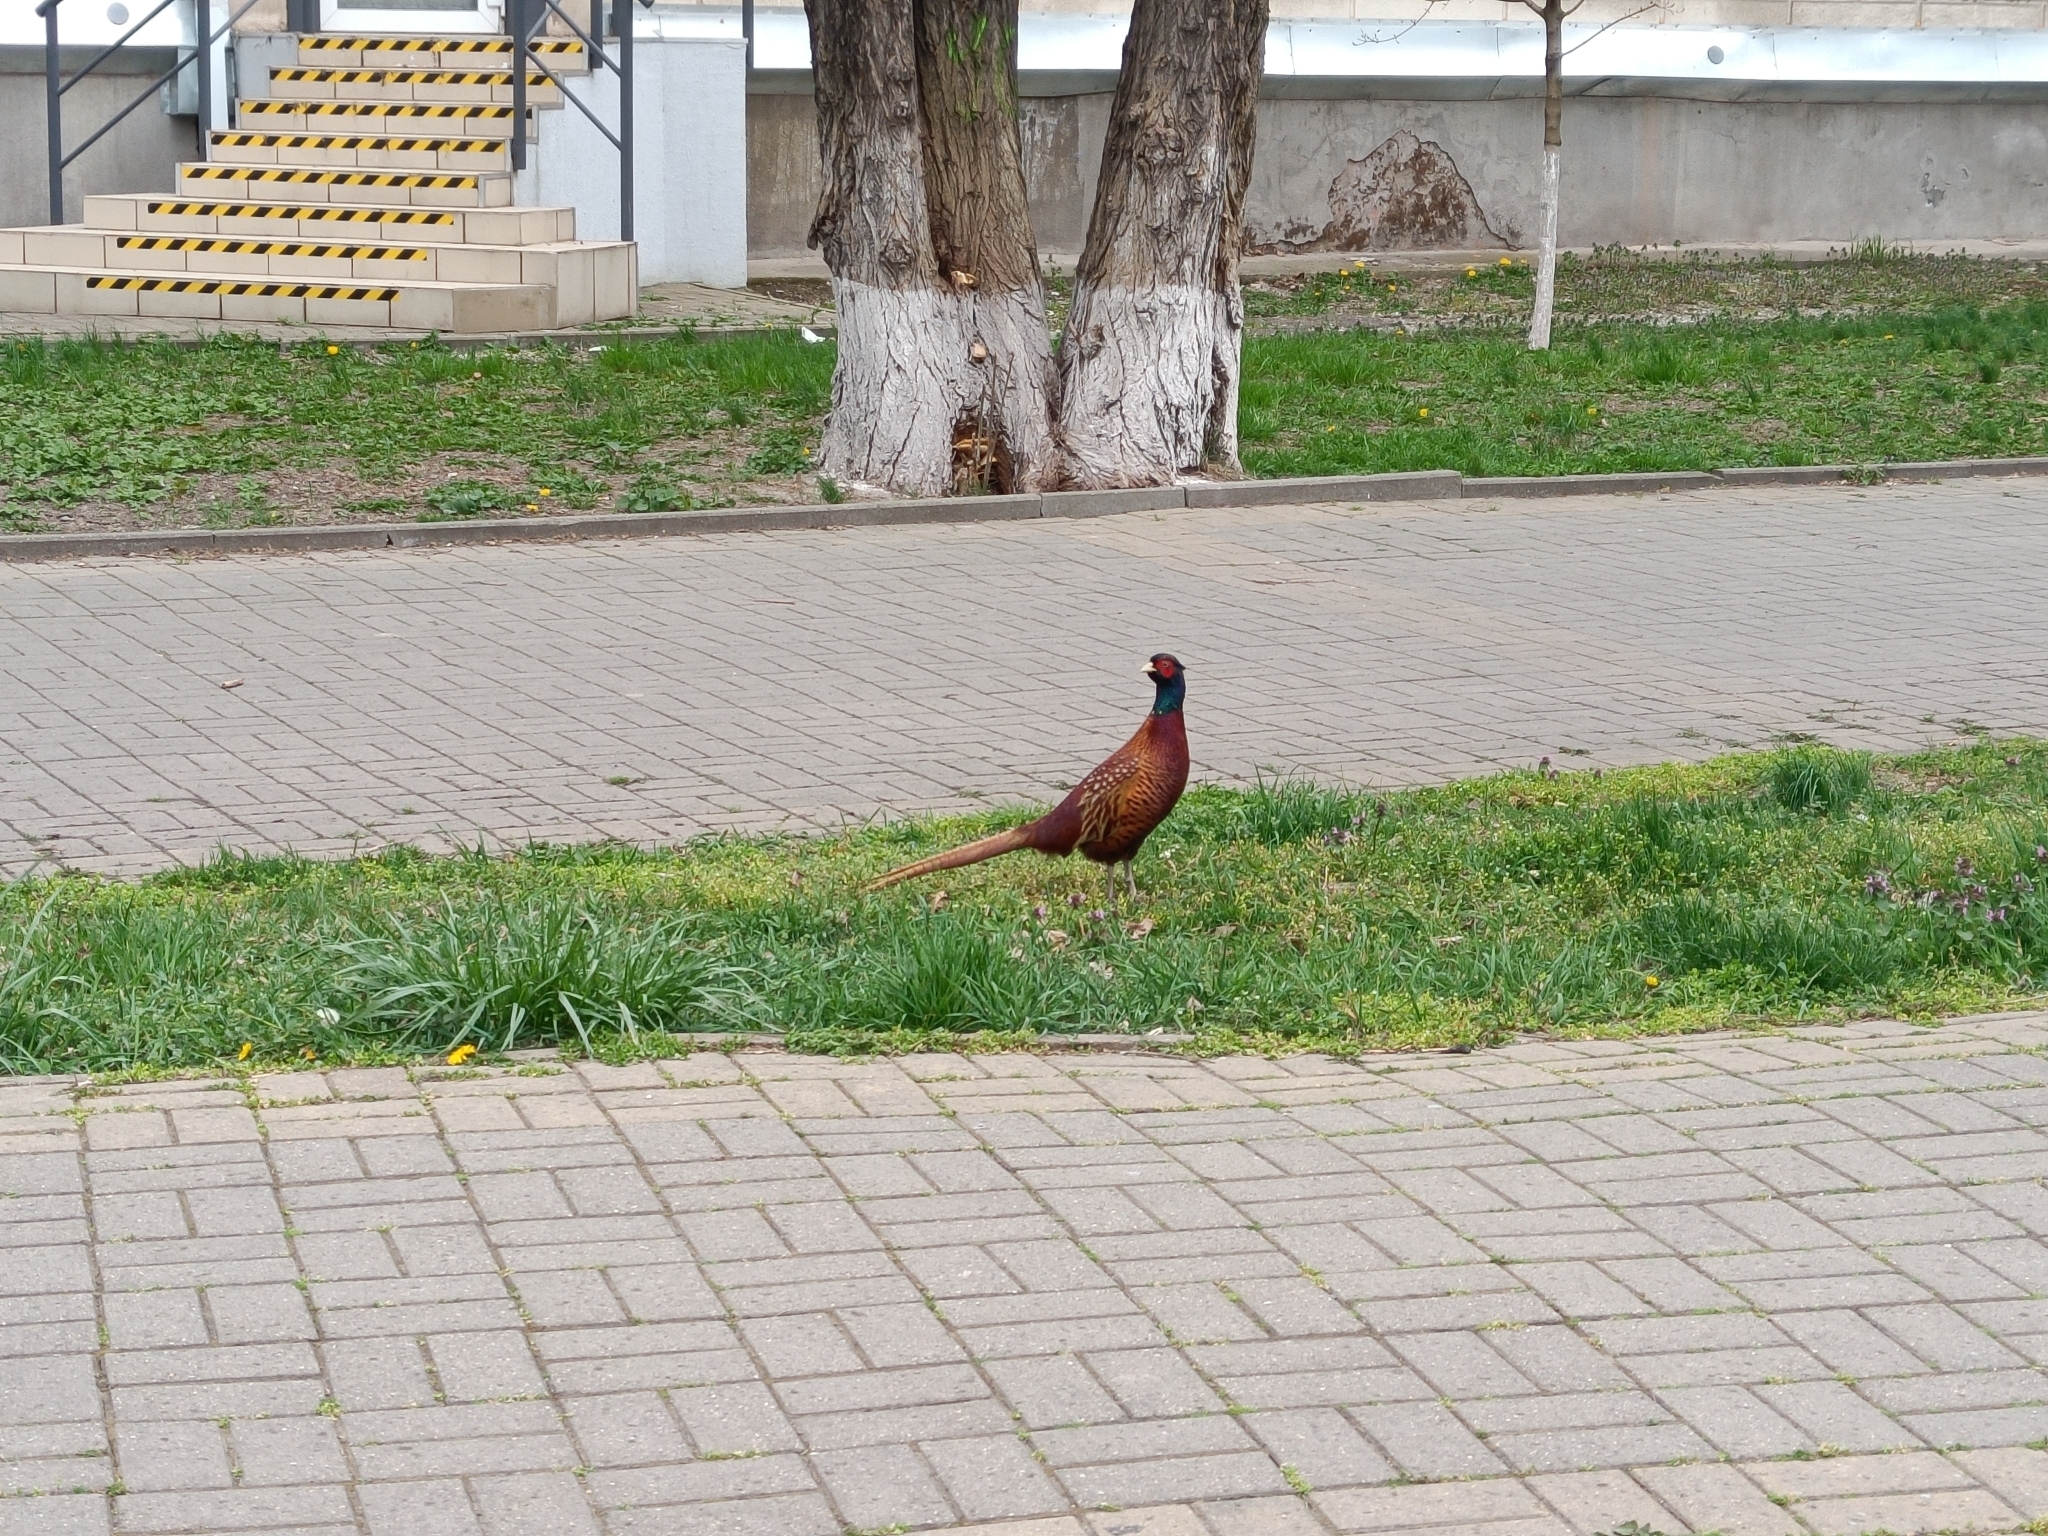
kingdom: Animalia
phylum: Chordata
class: Aves
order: Galliformes
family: Phasianidae
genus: Phasianus
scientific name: Phasianus colchicus
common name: Common pheasant
